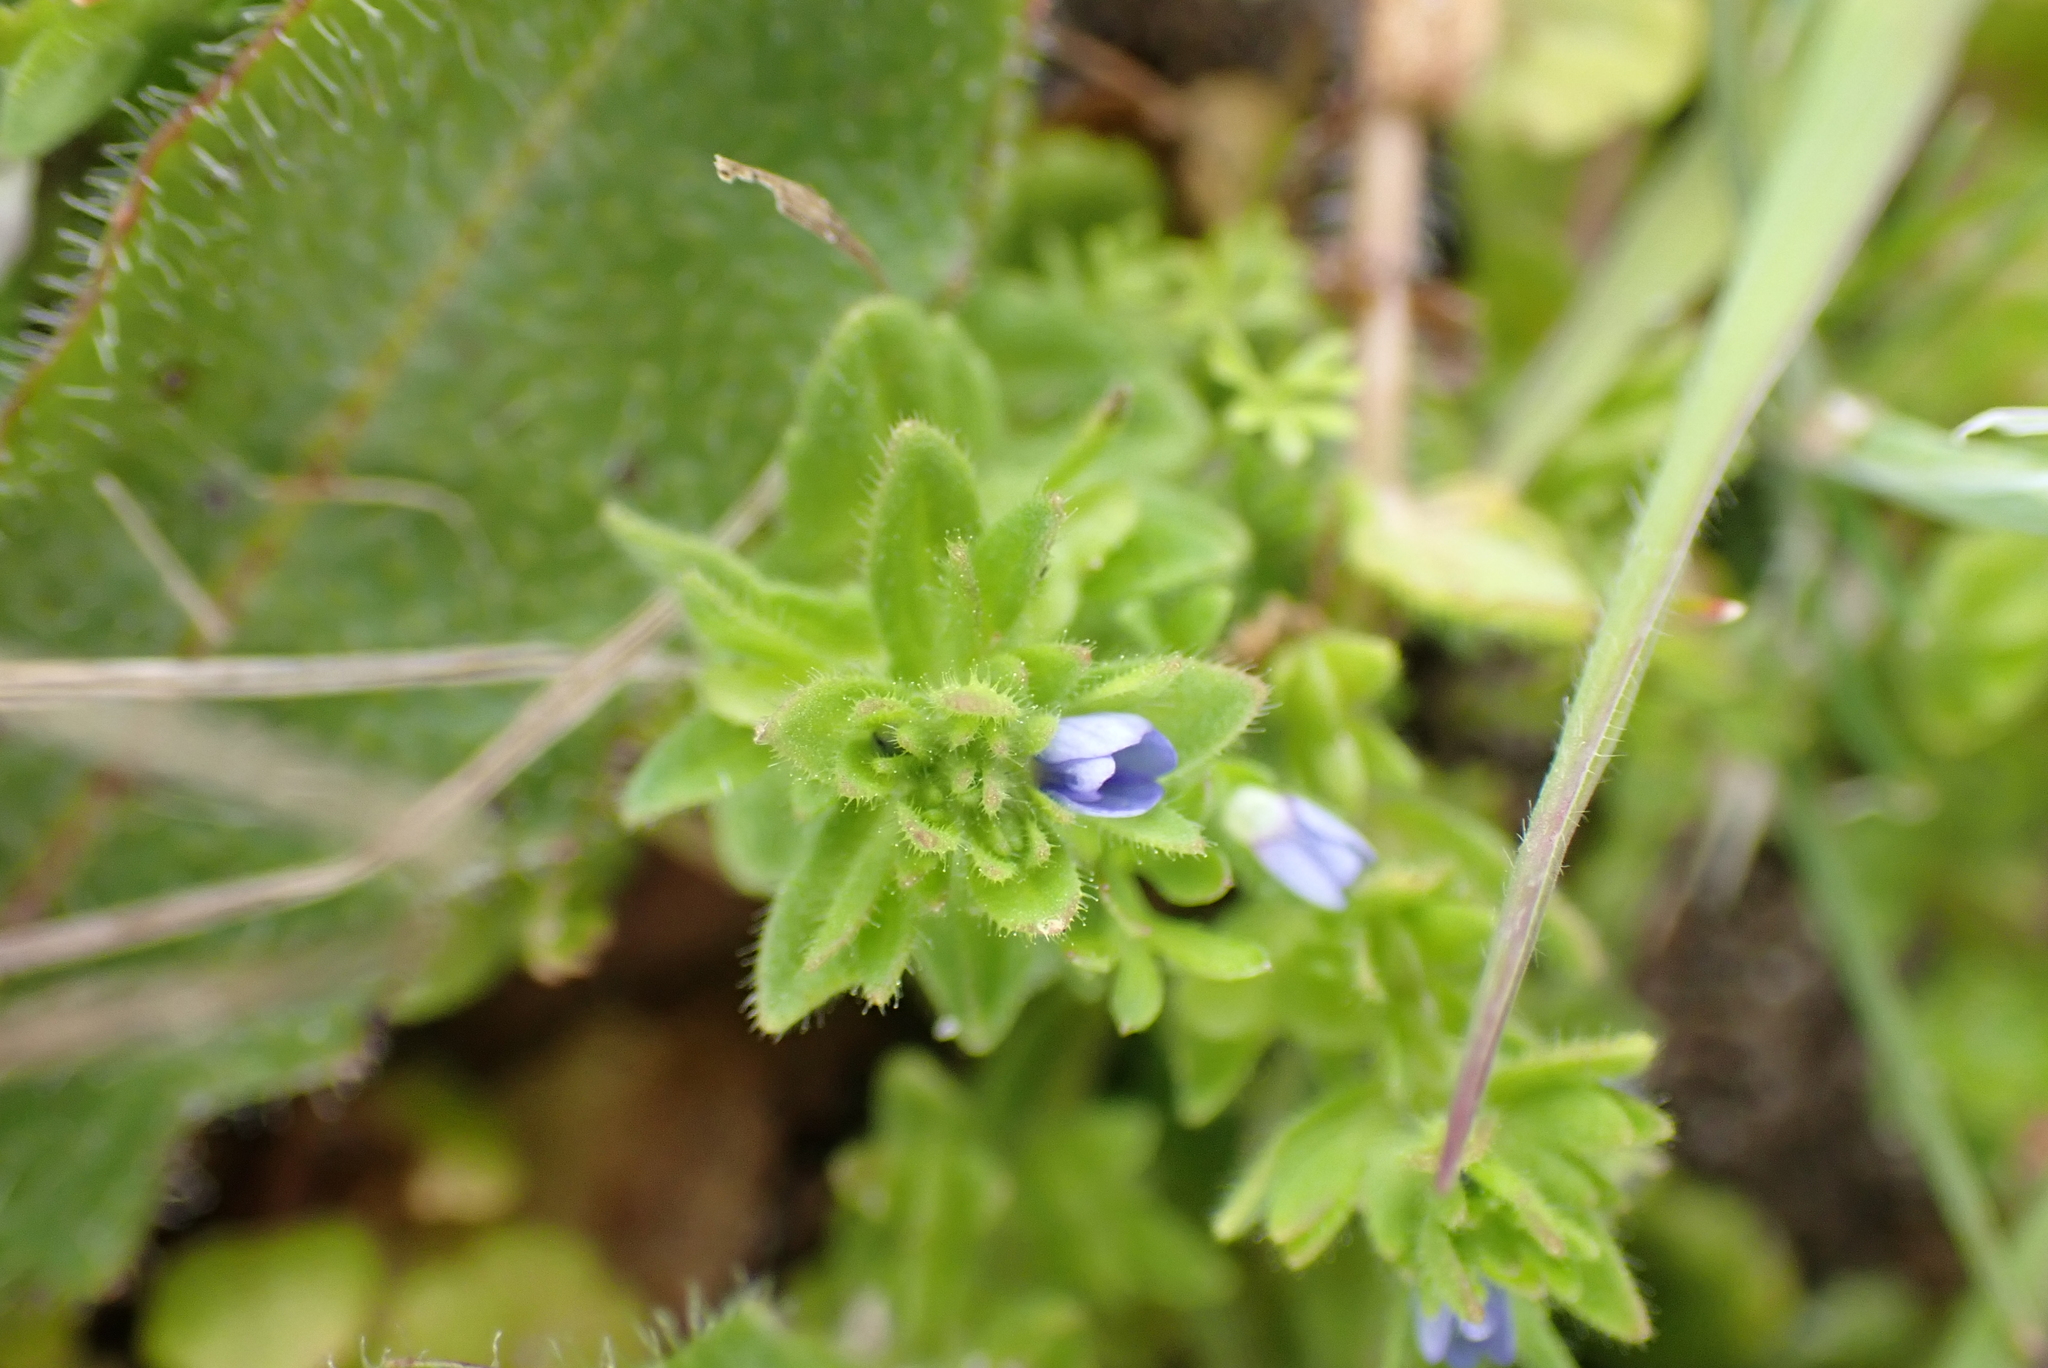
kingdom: Plantae
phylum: Tracheophyta
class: Magnoliopsida
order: Lamiales
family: Plantaginaceae
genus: Veronica
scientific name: Veronica arvensis
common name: Corn speedwell
